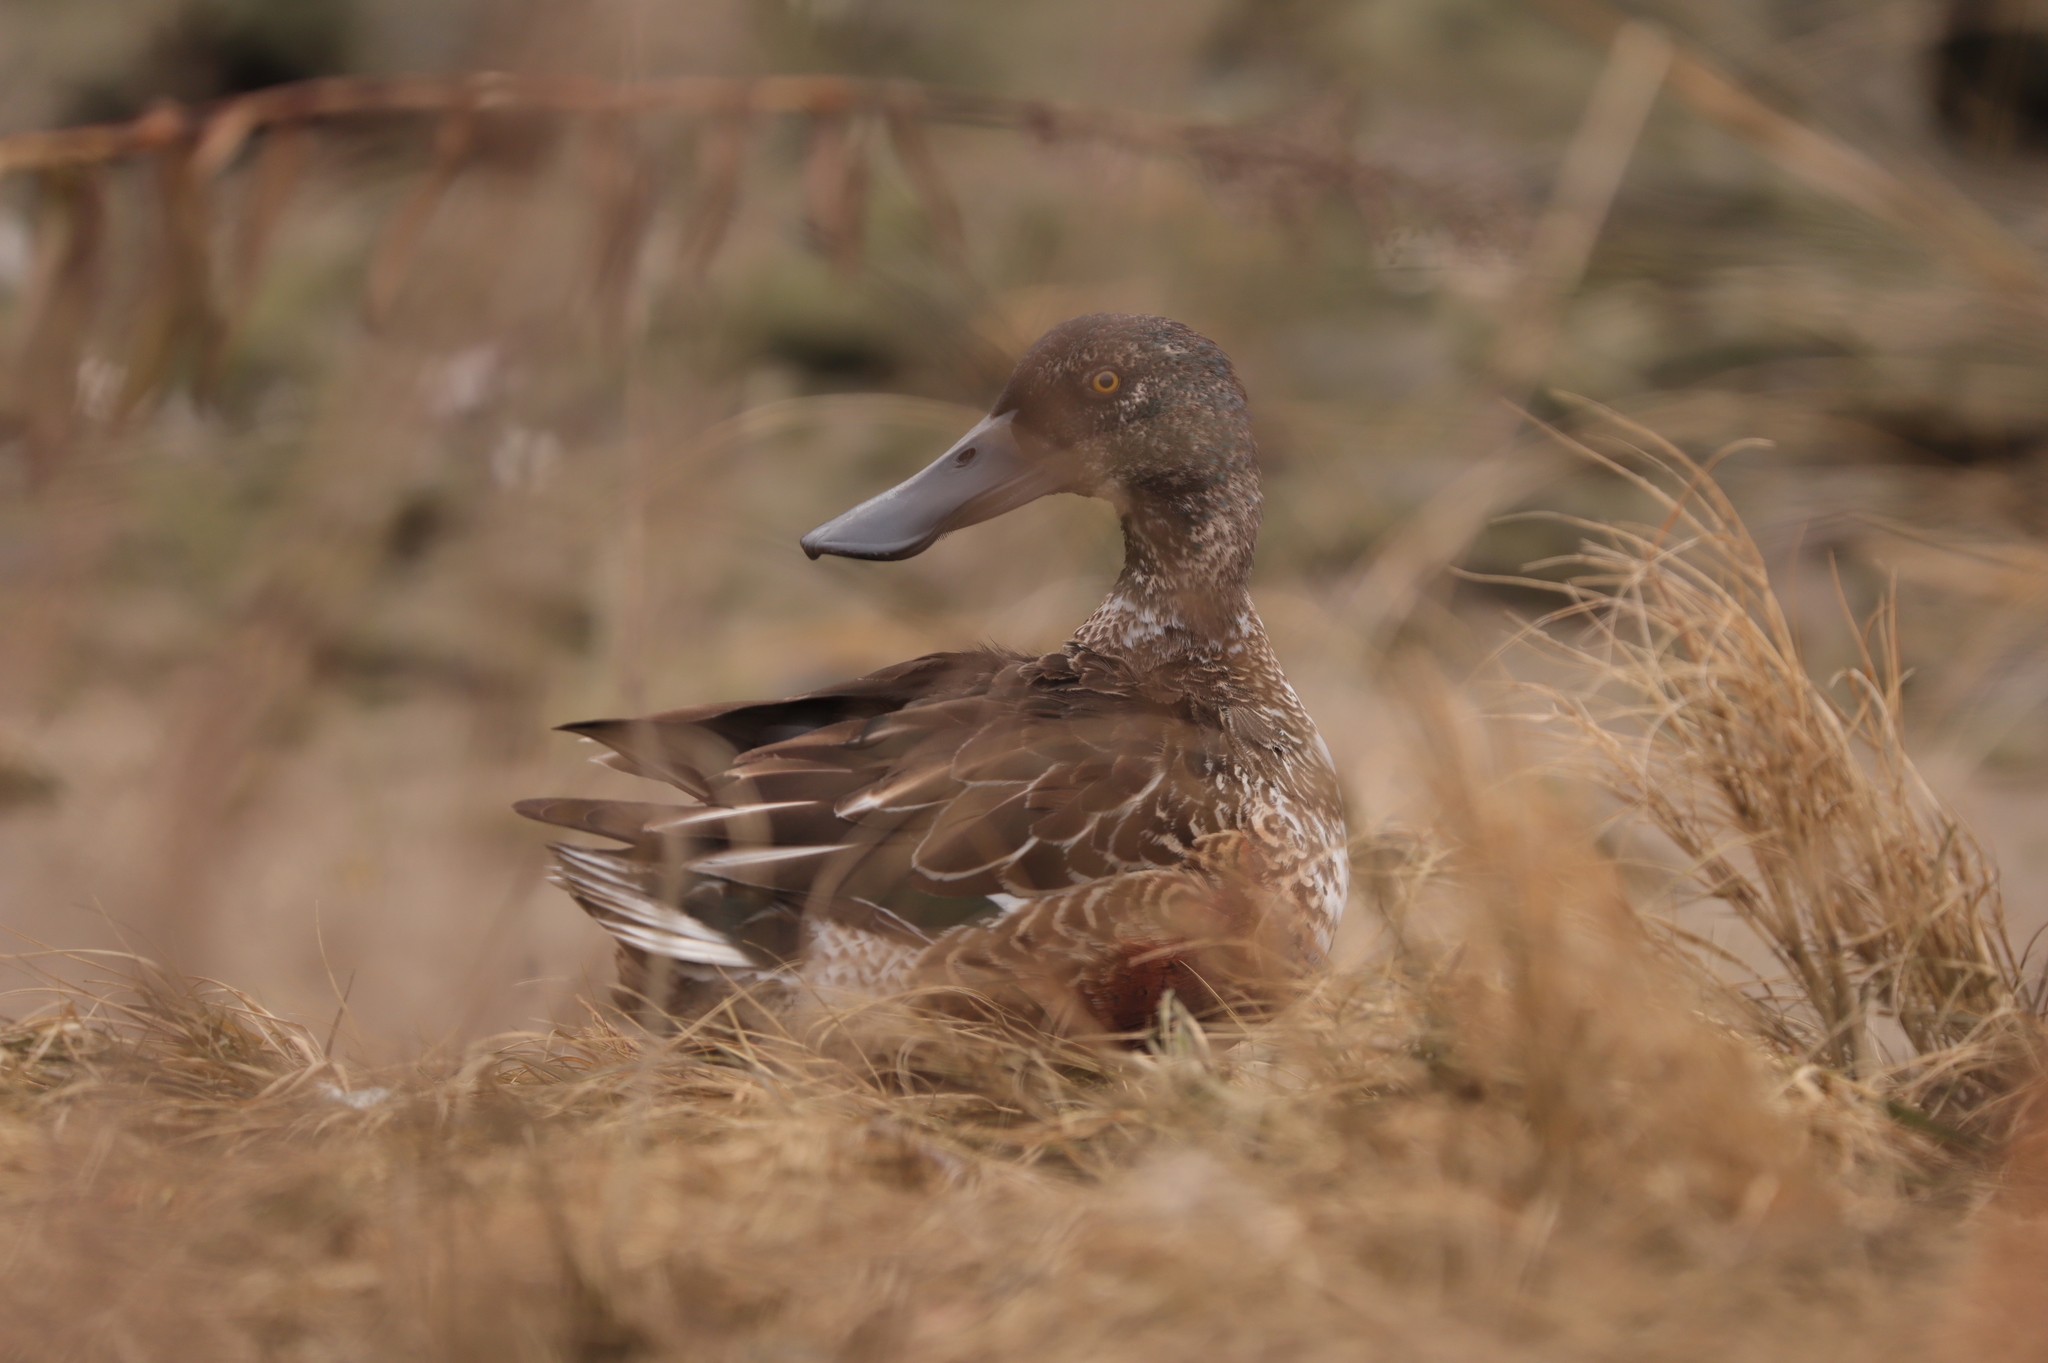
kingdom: Animalia
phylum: Chordata
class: Aves
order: Anseriformes
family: Anatidae
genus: Spatula
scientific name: Spatula clypeata
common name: Northern shoveler
